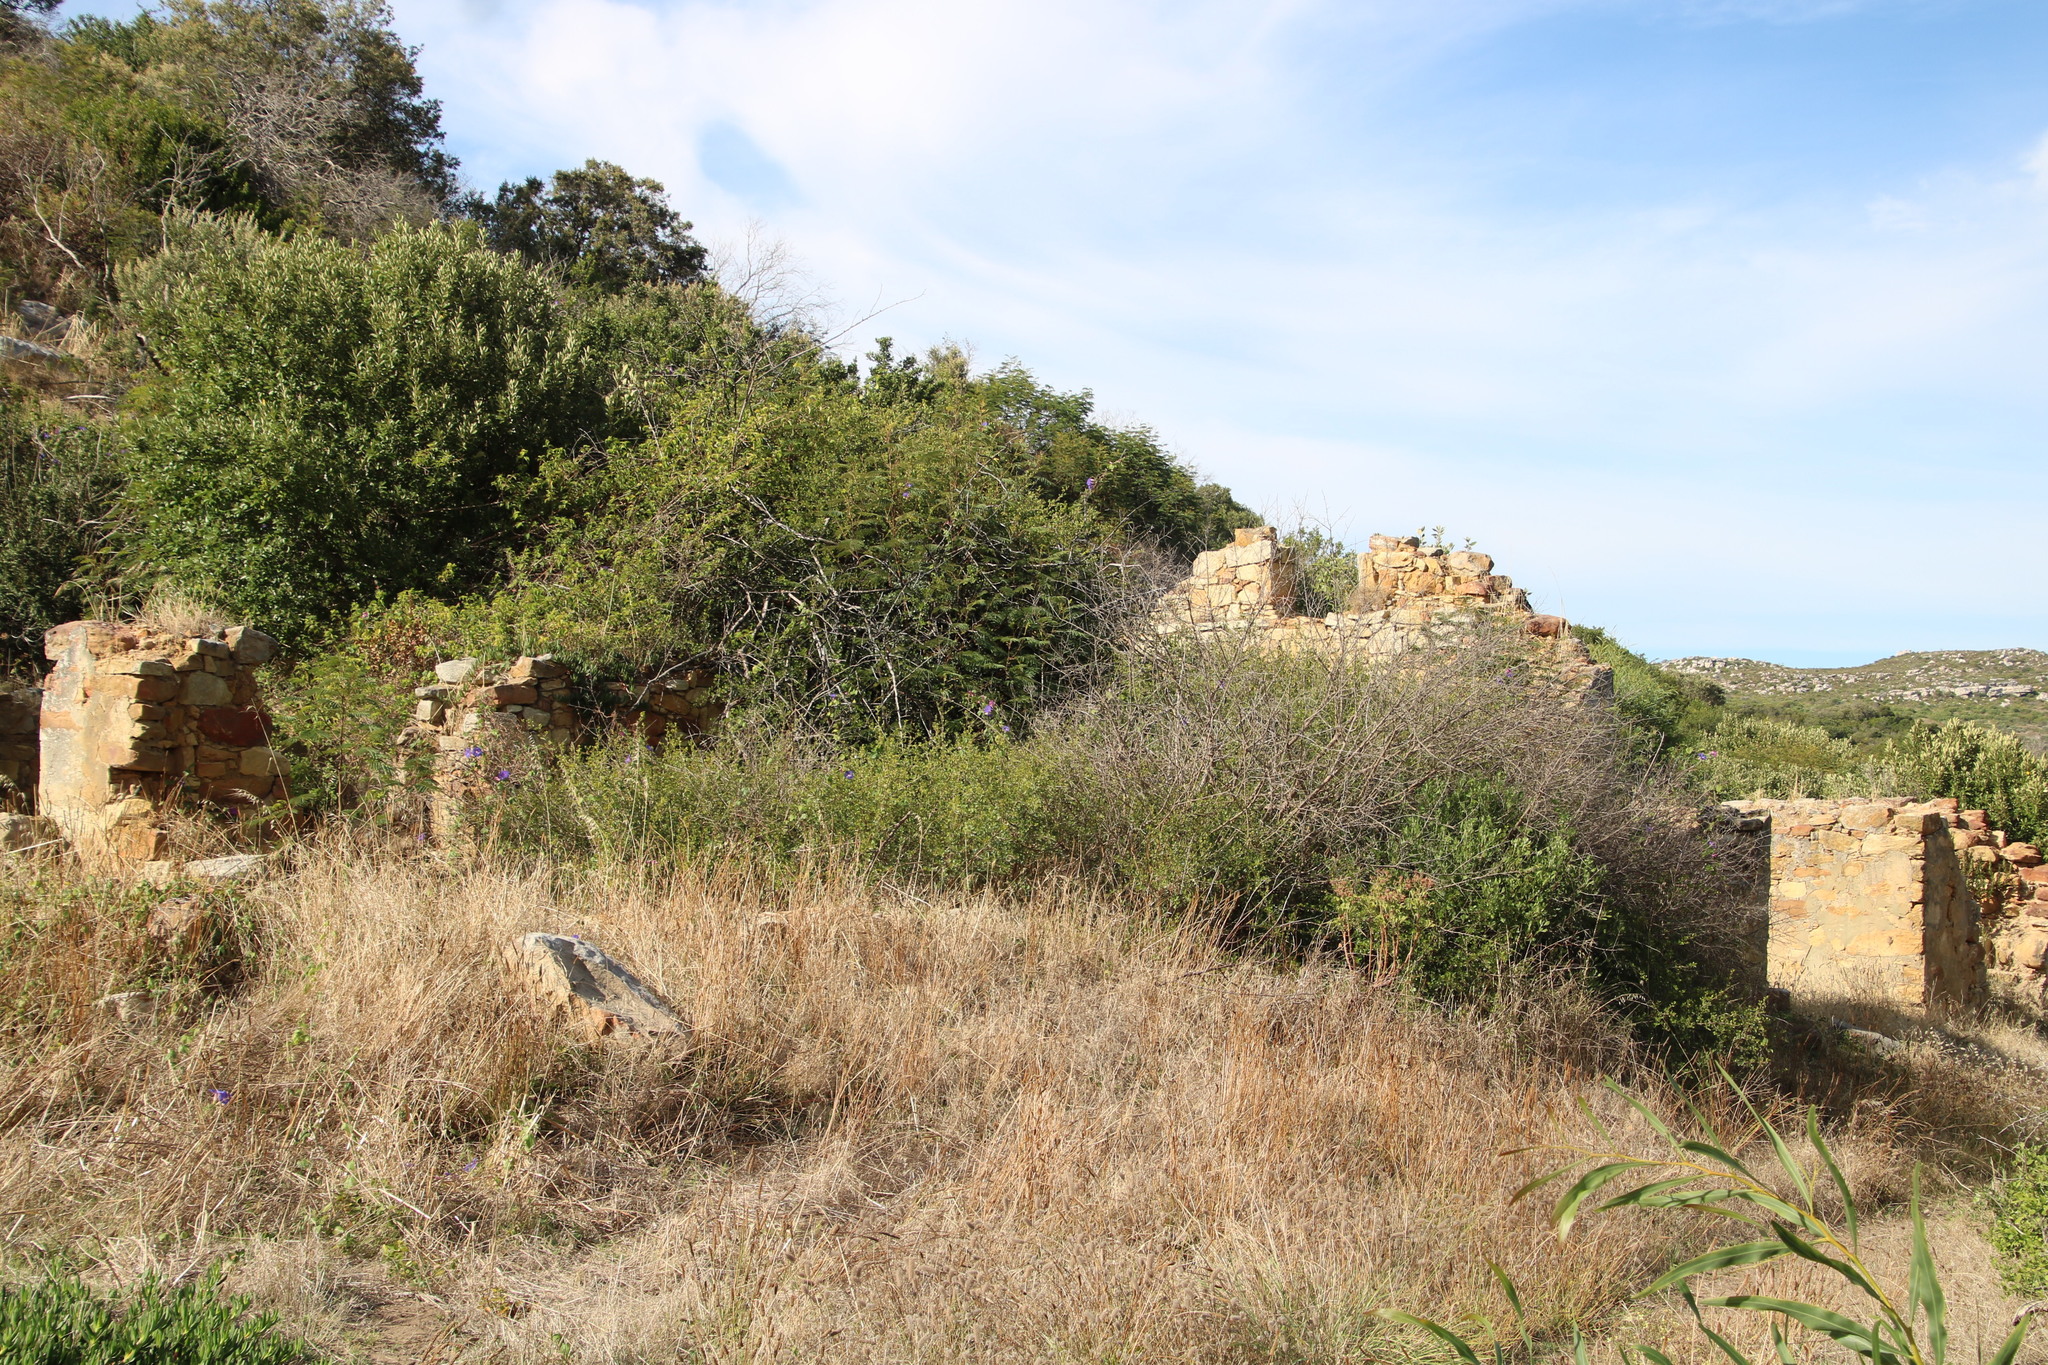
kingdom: Plantae
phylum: Tracheophyta
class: Magnoliopsida
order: Fabales
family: Fabaceae
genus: Paraserianthes
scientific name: Paraserianthes lophantha
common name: Plume albizia
